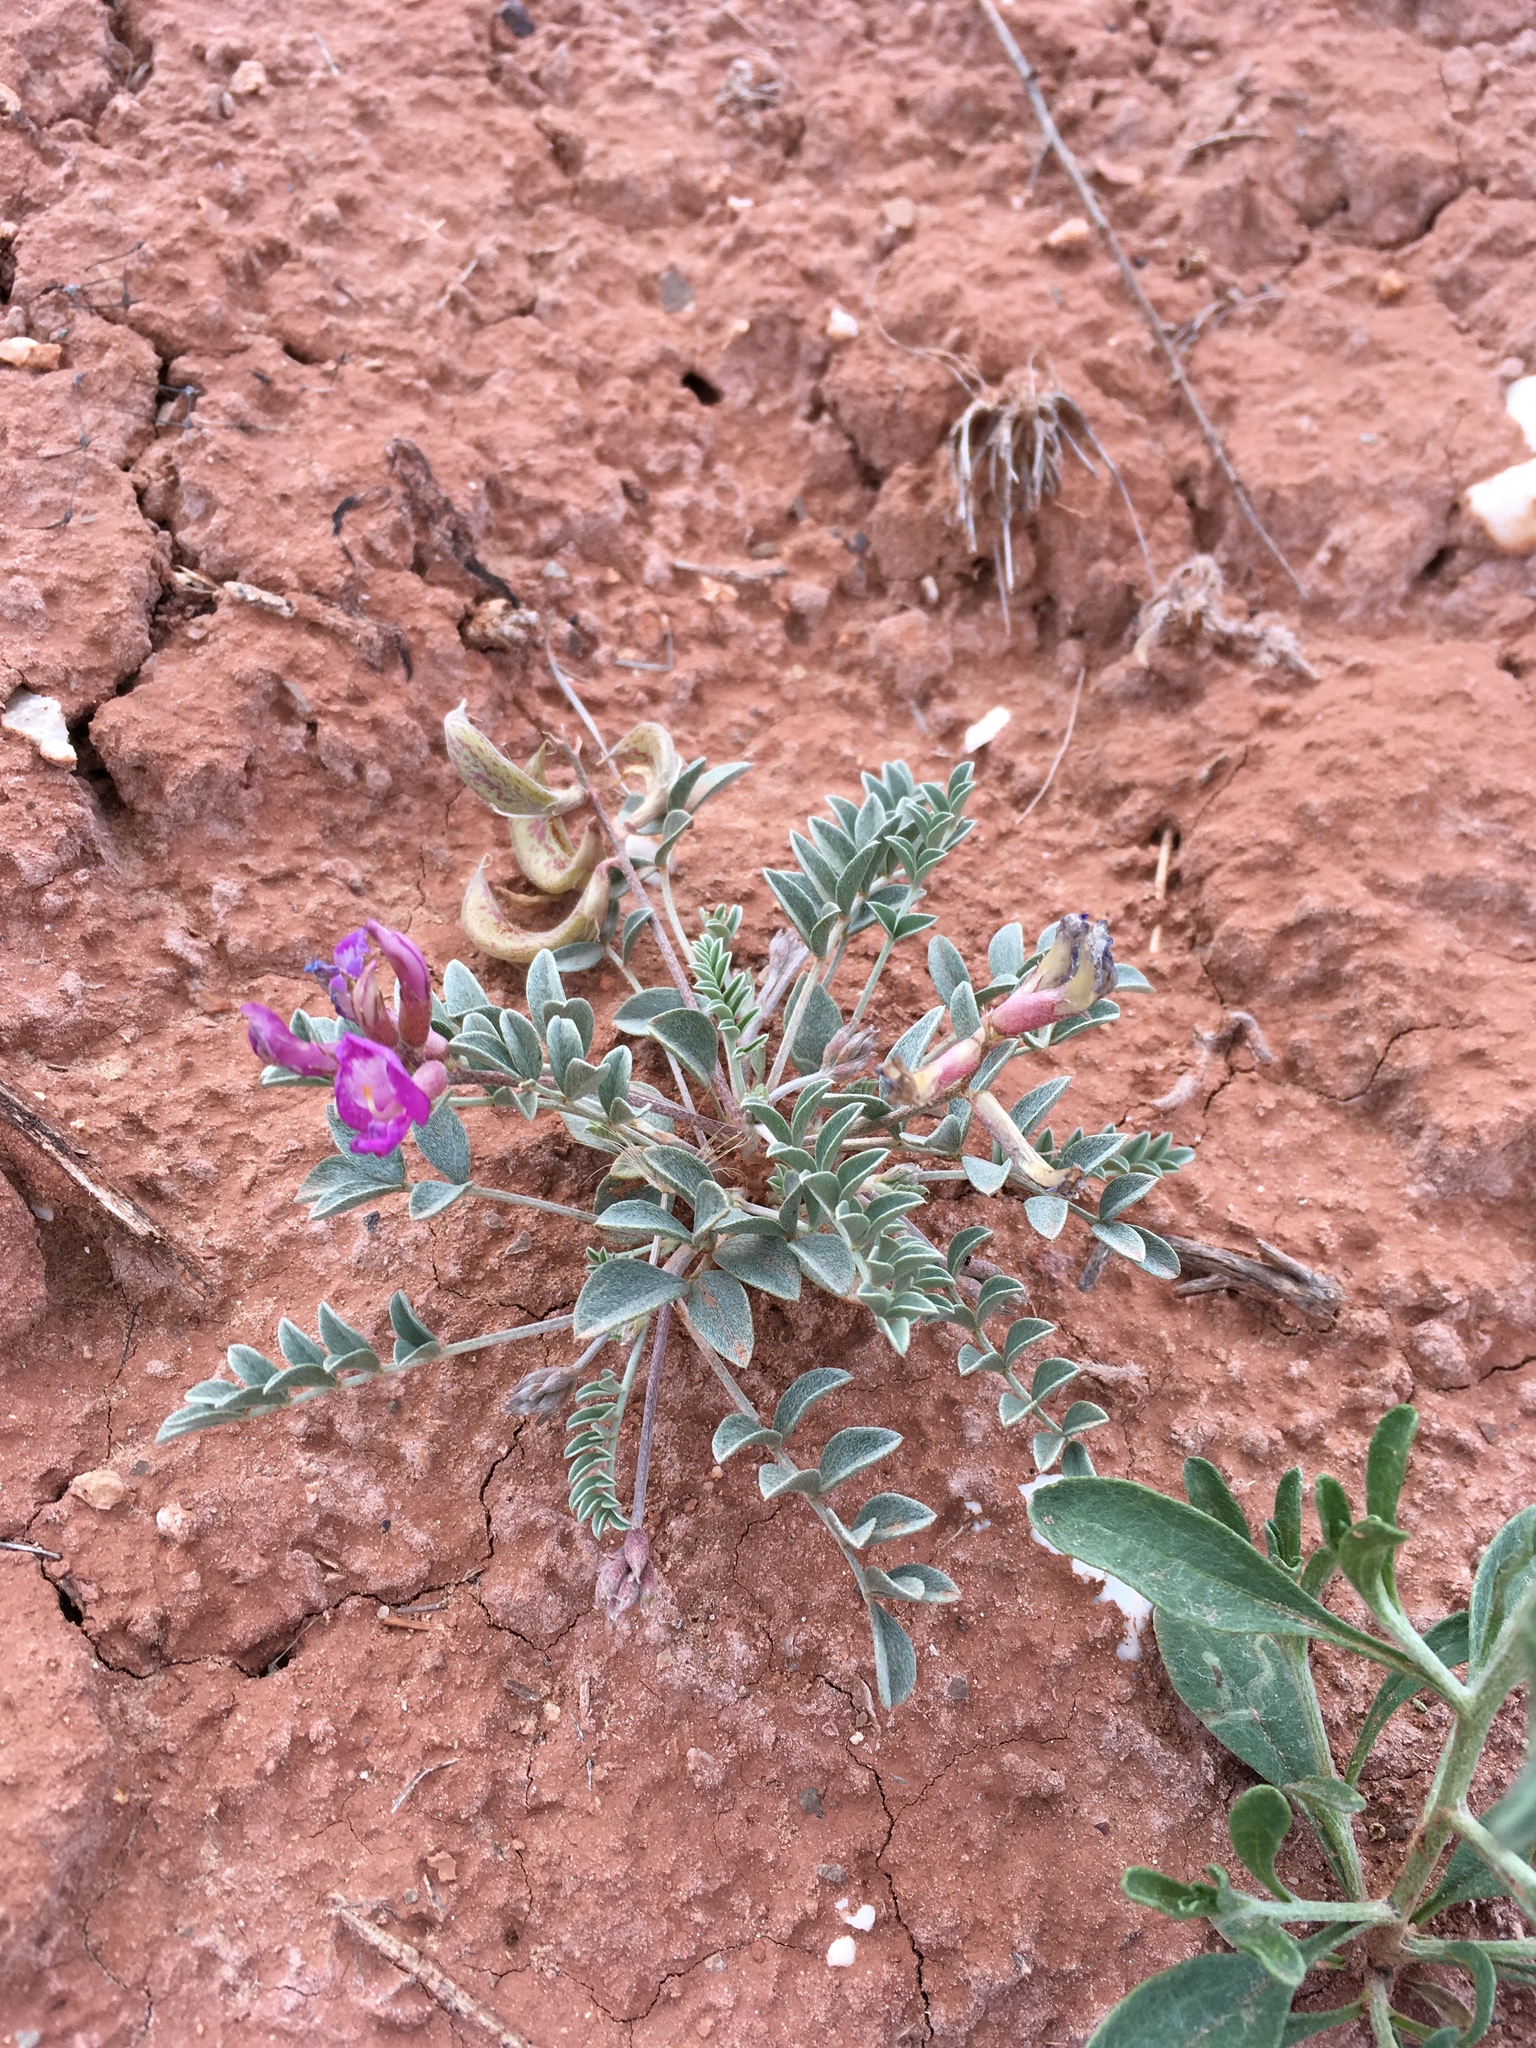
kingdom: Plantae
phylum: Tracheophyta
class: Magnoliopsida
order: Fabales
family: Fabaceae
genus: Astragalus
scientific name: Astragalus amphioxys
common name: Crescent milk-vetch
